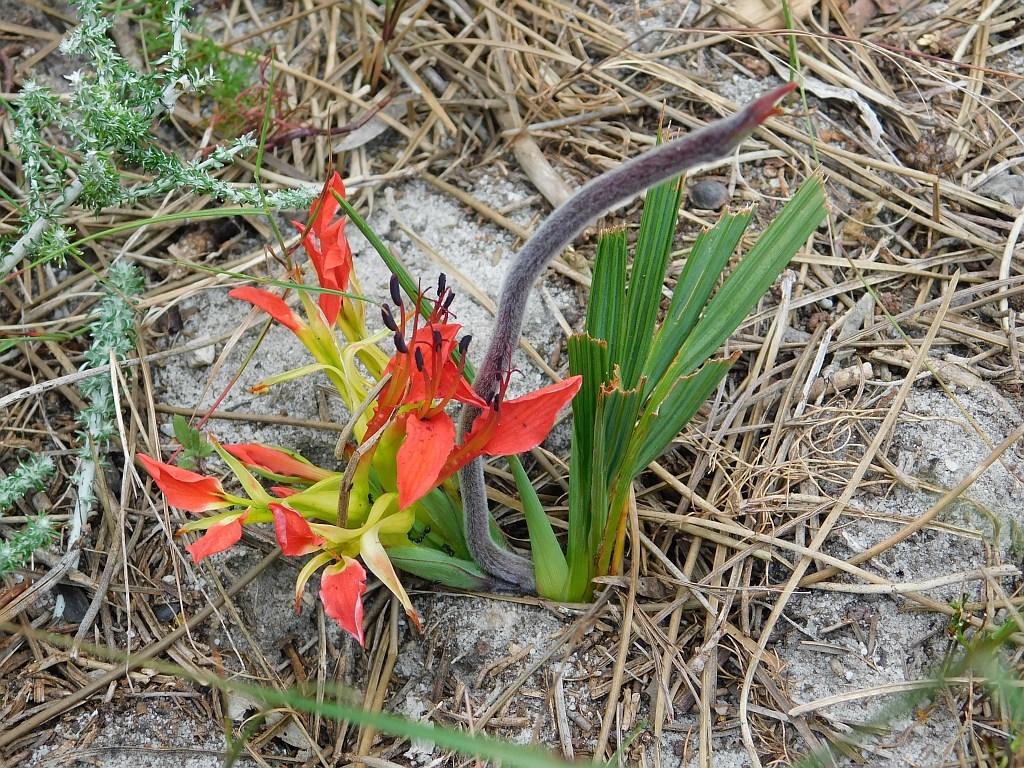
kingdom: Plantae
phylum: Tracheophyta
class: Liliopsida
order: Asparagales
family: Iridaceae
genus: Babiana
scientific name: Babiana ringens
